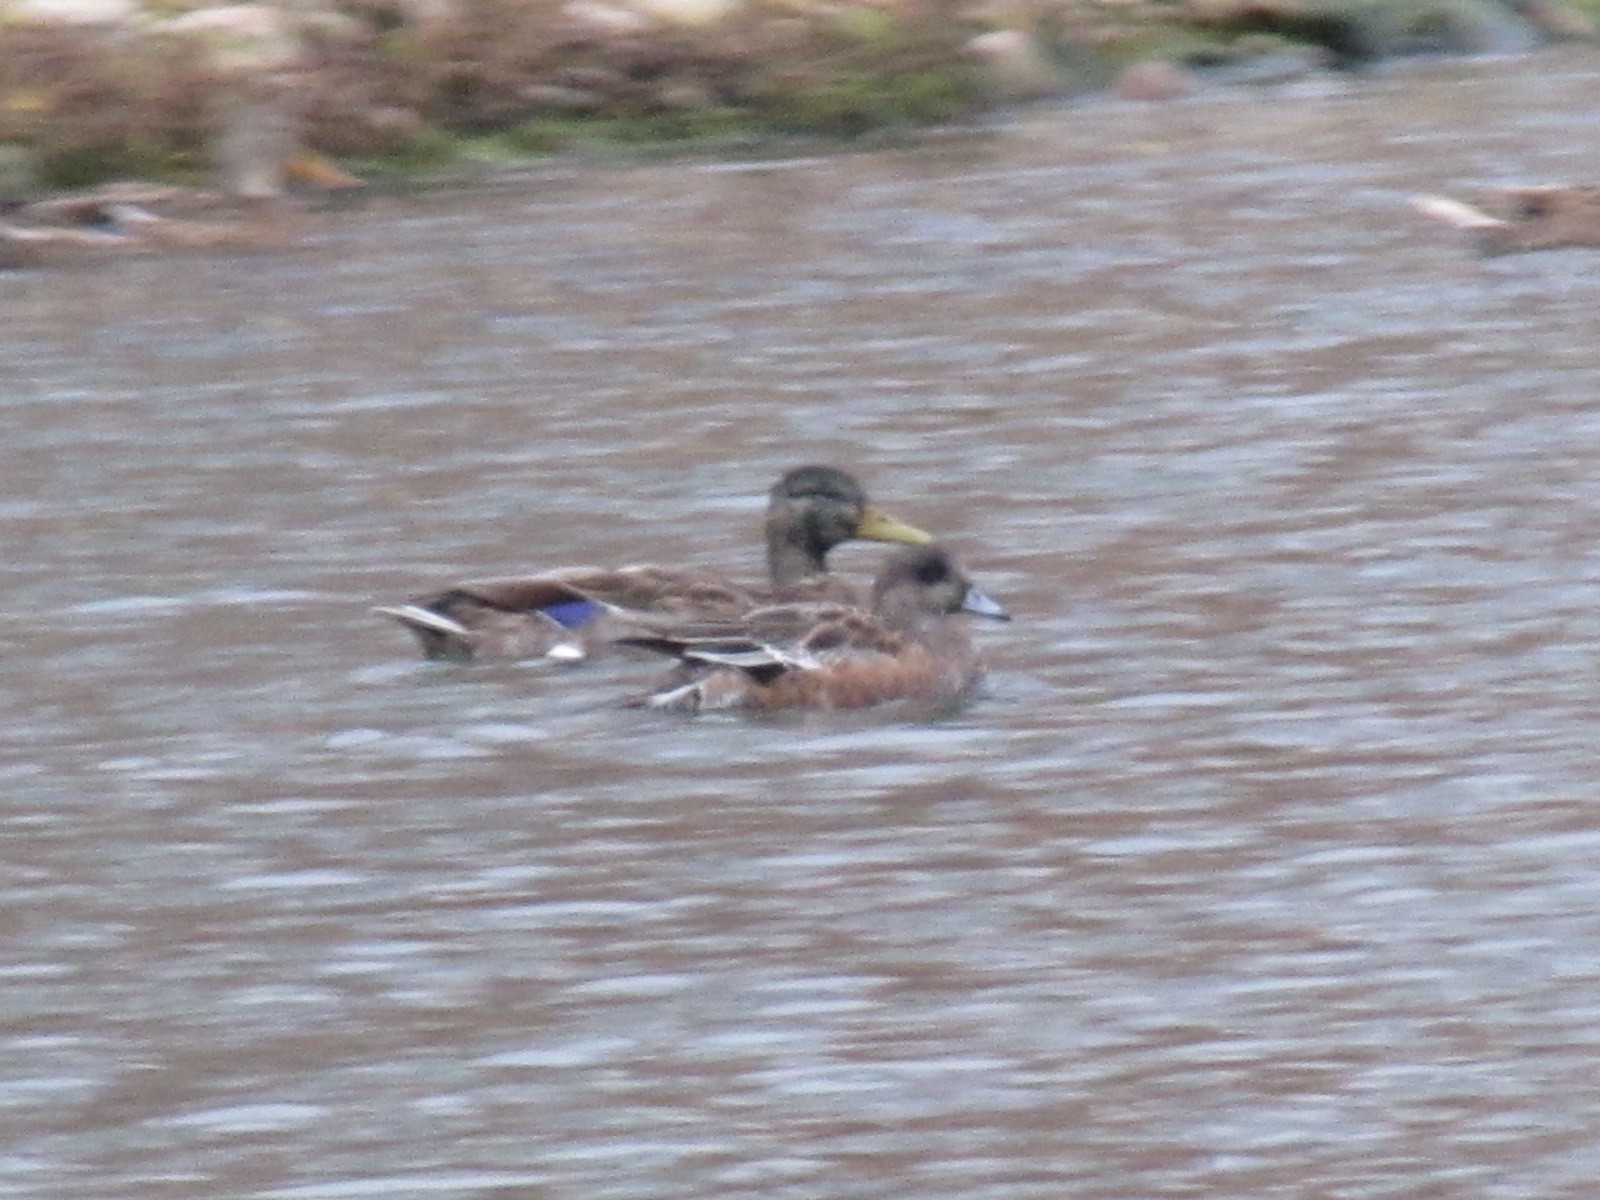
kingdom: Animalia
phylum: Chordata
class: Aves
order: Anseriformes
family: Anatidae
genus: Mareca
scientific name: Mareca americana
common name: American wigeon
